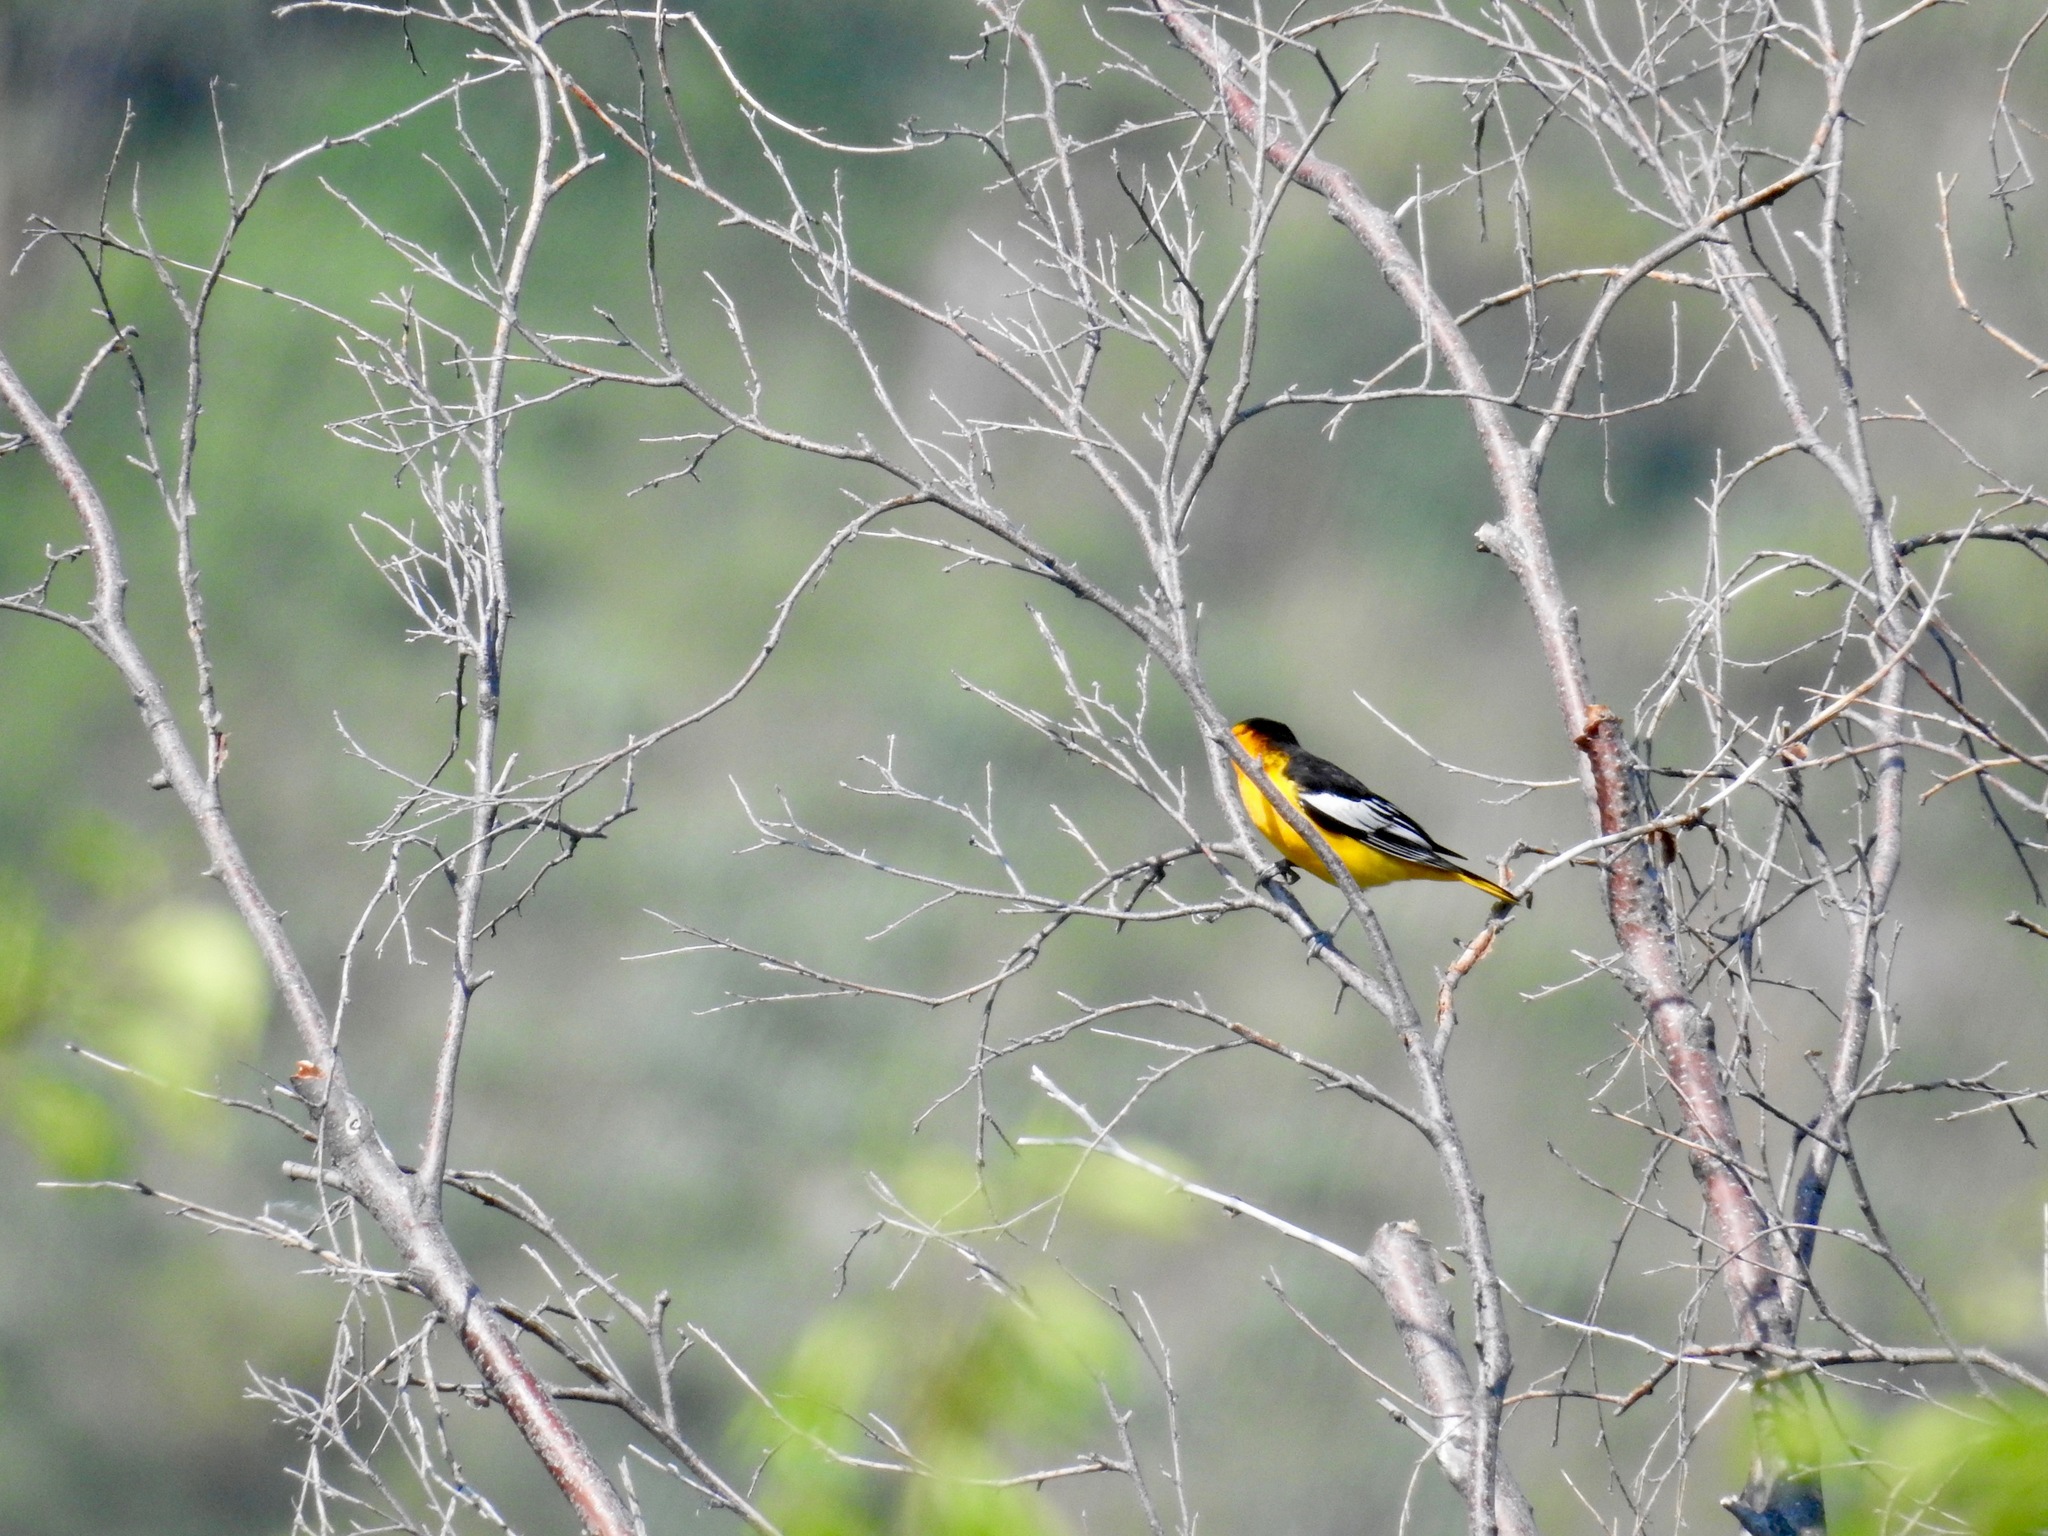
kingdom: Animalia
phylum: Chordata
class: Aves
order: Passeriformes
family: Icteridae
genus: Icterus
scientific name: Icterus bullockii
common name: Bullock's oriole
